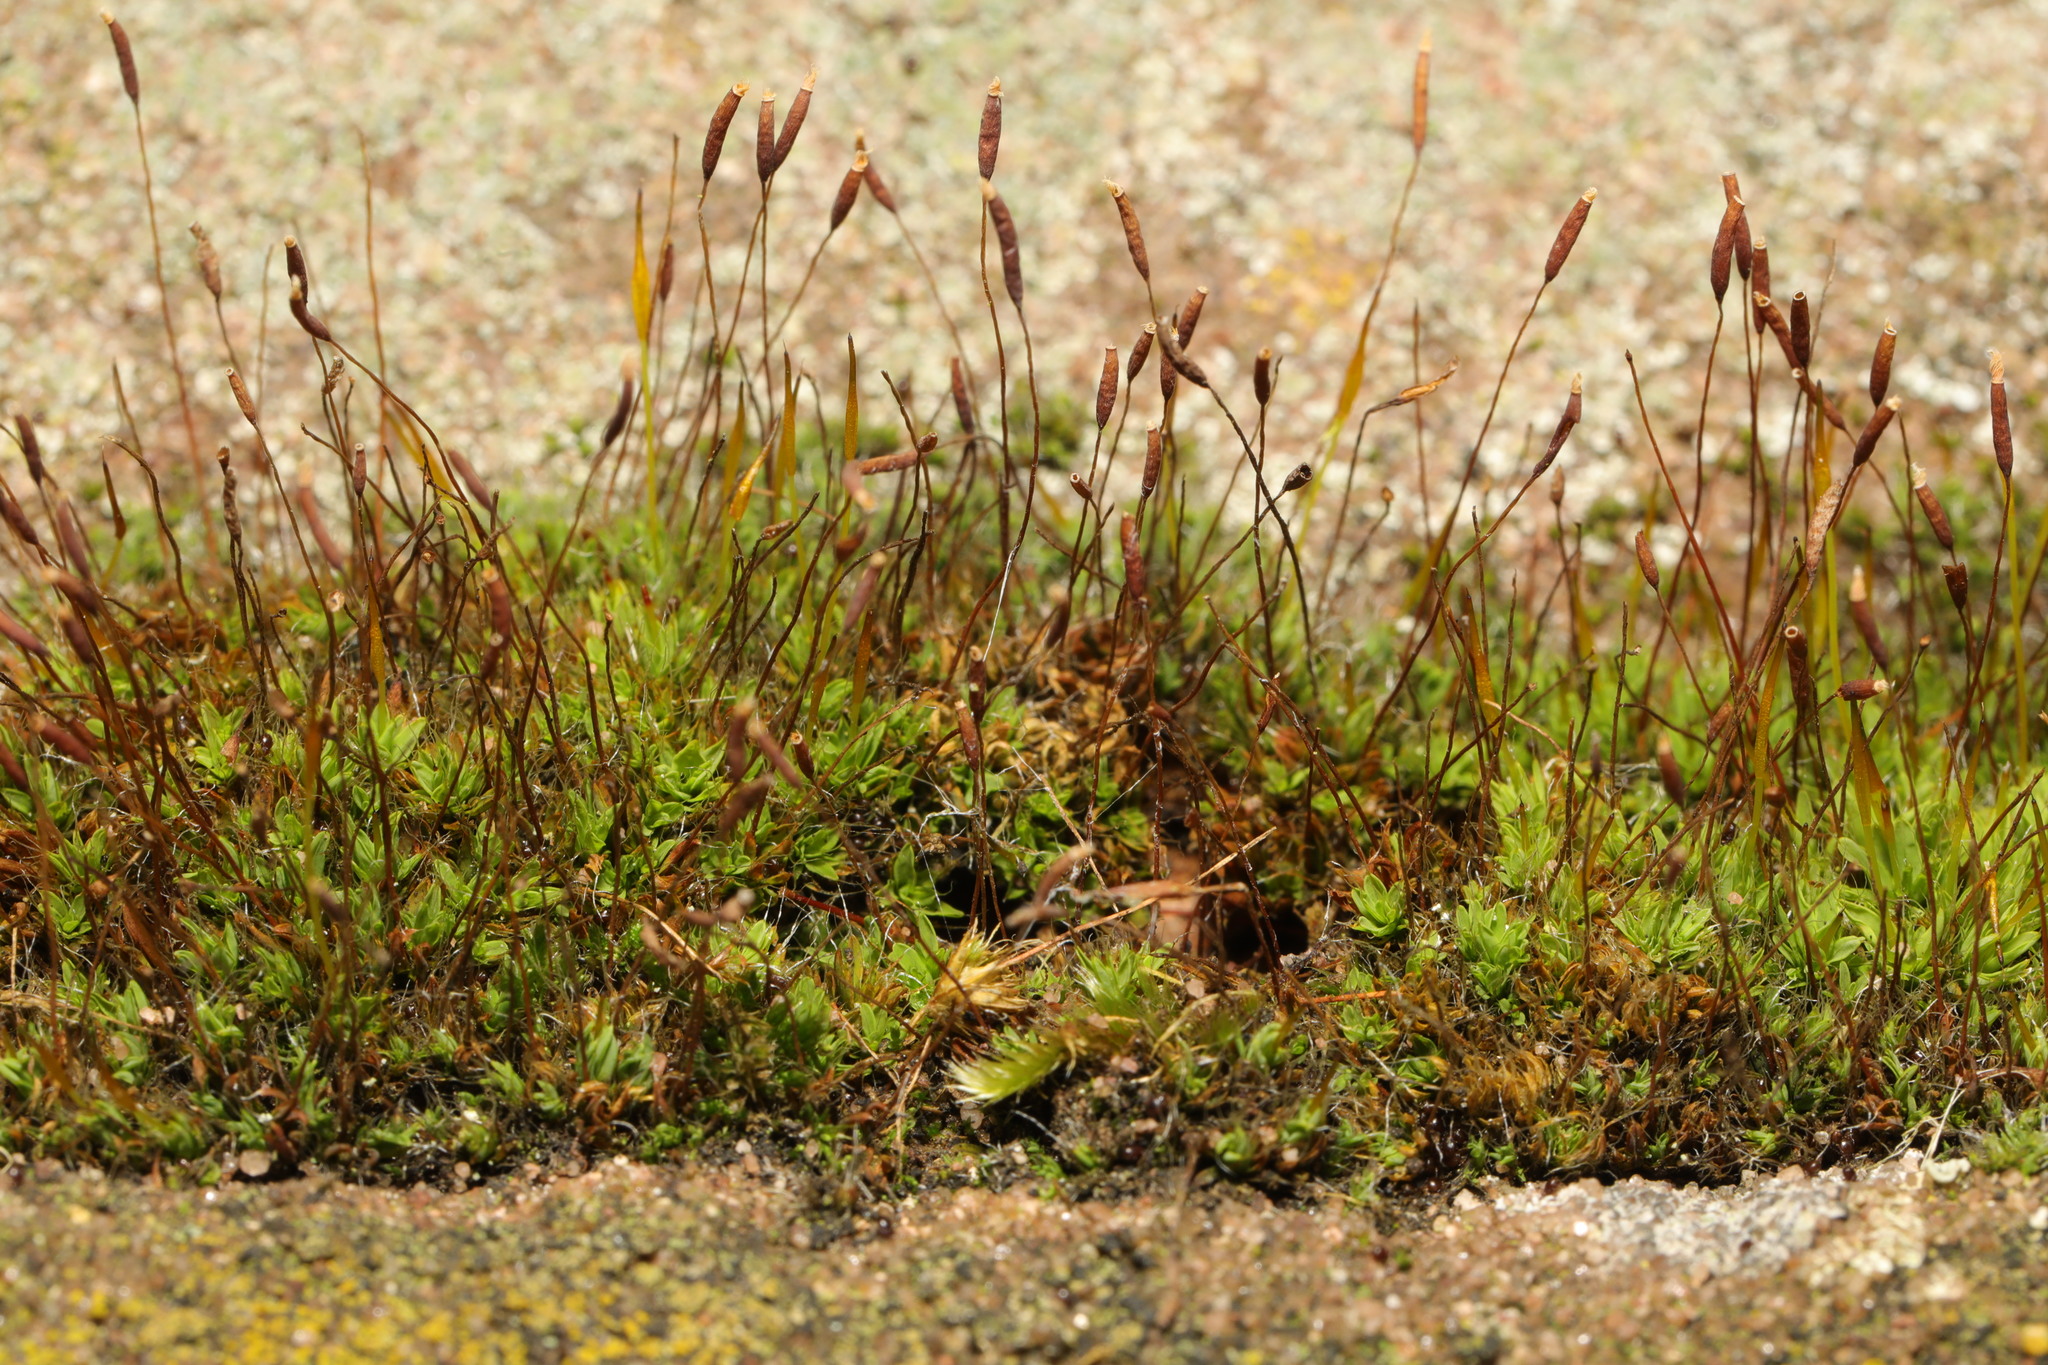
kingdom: Plantae
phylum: Bryophyta
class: Bryopsida
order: Pottiales
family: Pottiaceae
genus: Tortula
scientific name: Tortula muralis
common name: Wall screw-moss
